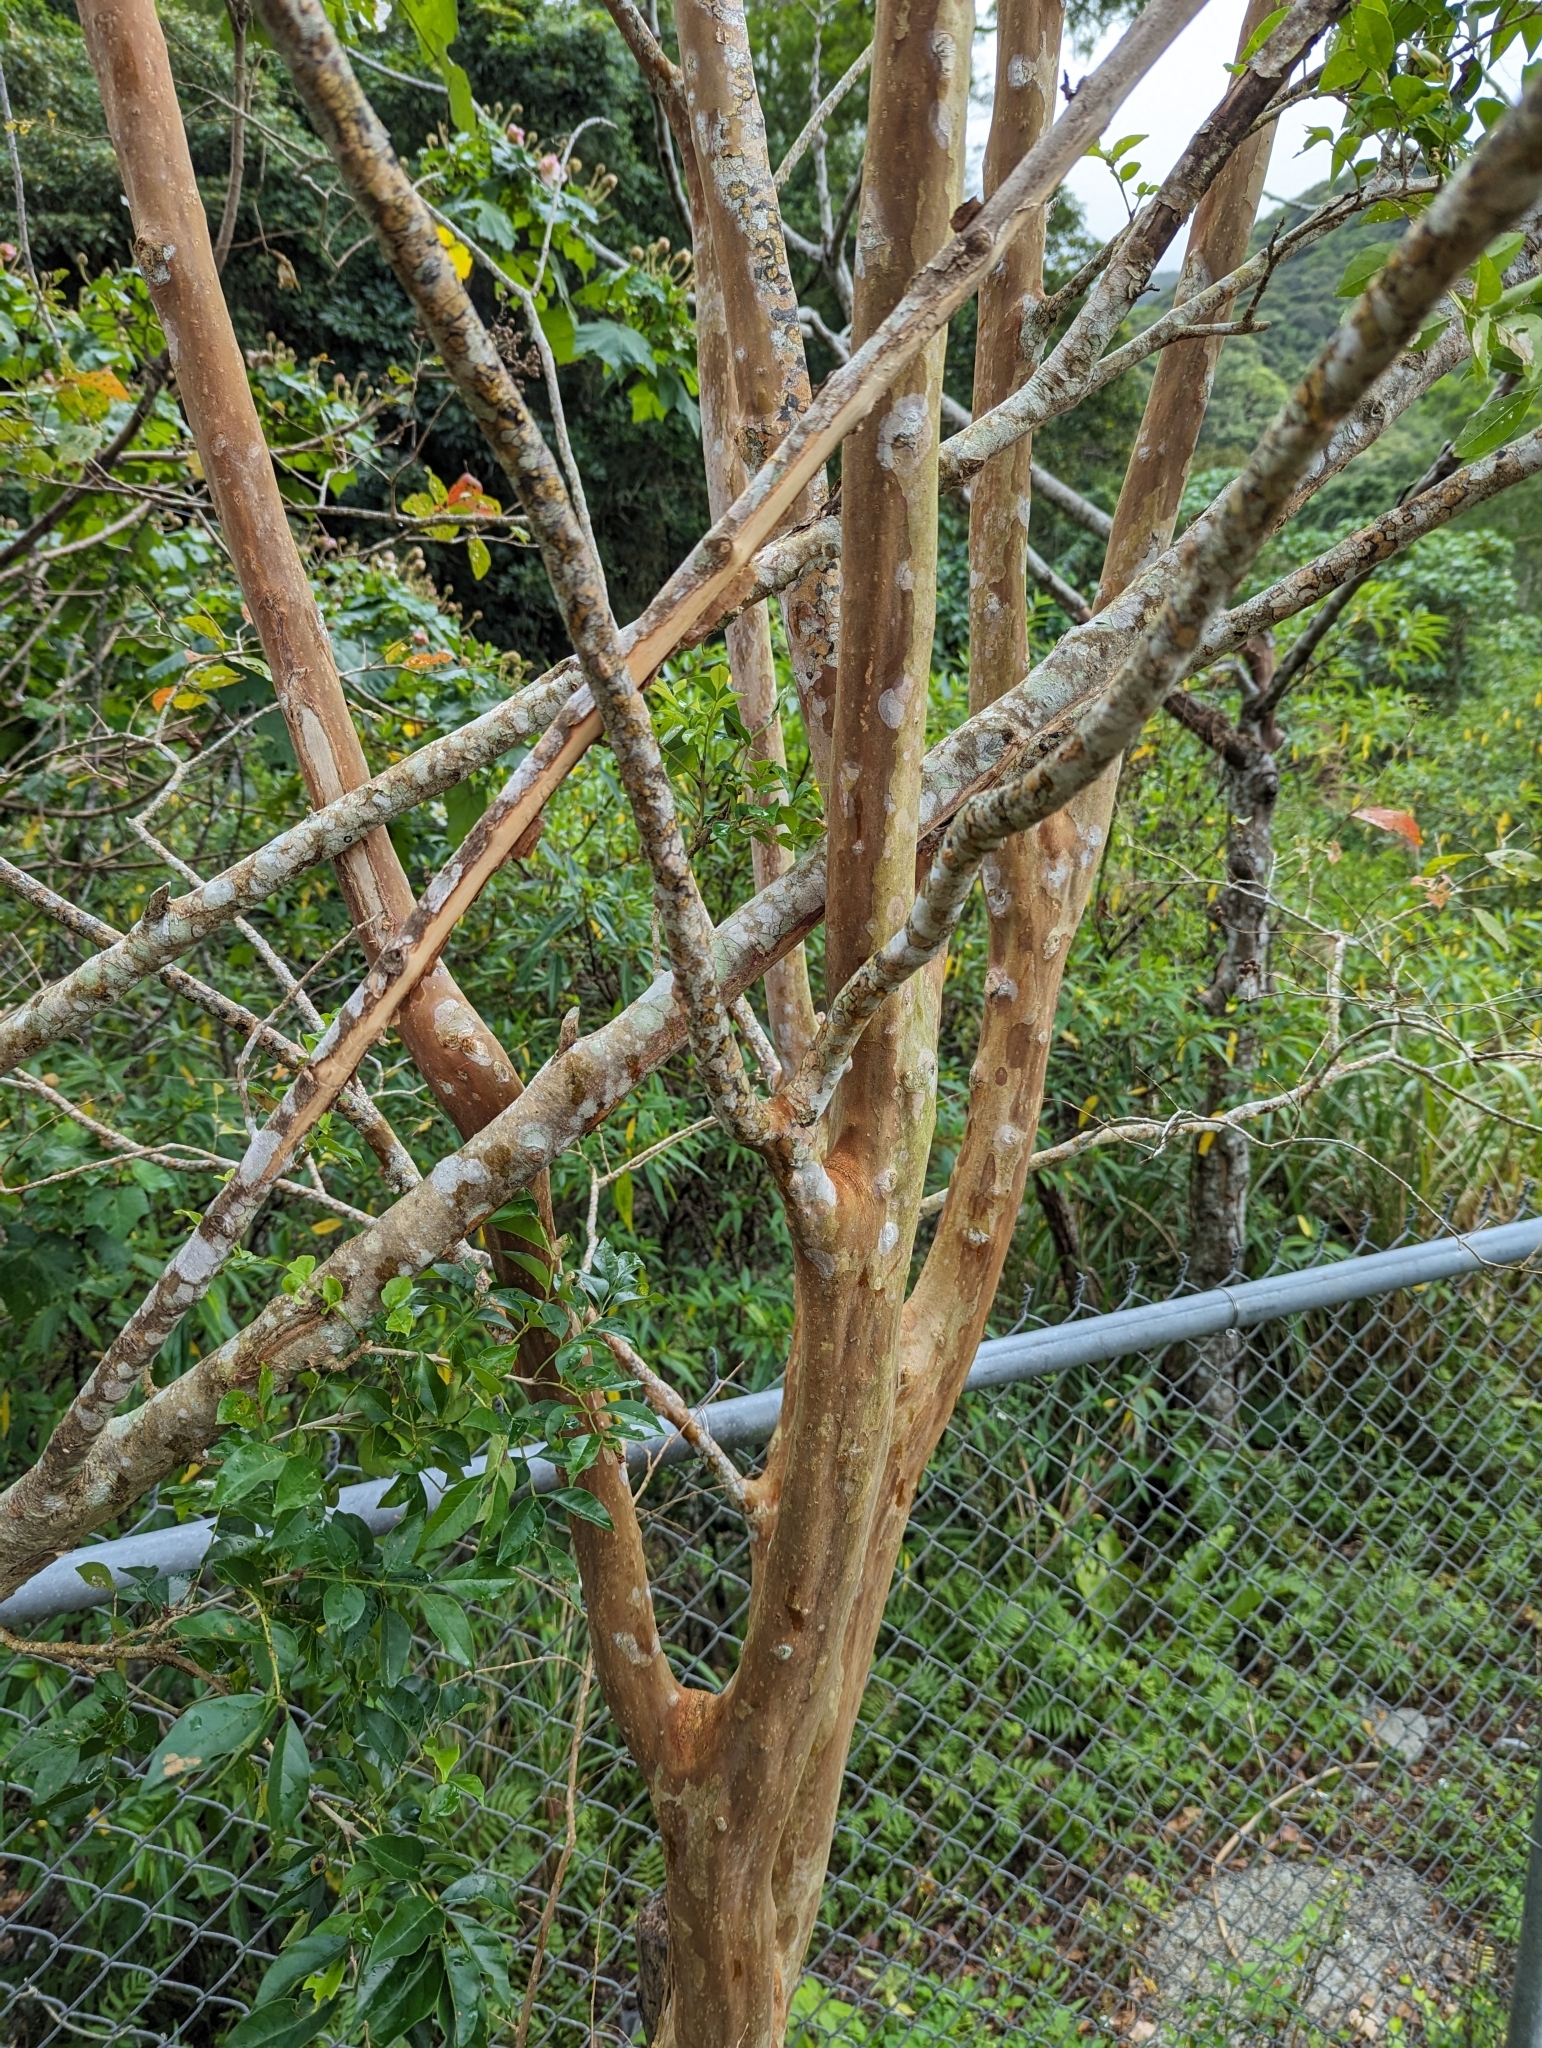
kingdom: Plantae
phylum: Tracheophyta
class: Magnoliopsida
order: Myrtales
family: Lythraceae
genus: Lagerstroemia
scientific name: Lagerstroemia subcostata
